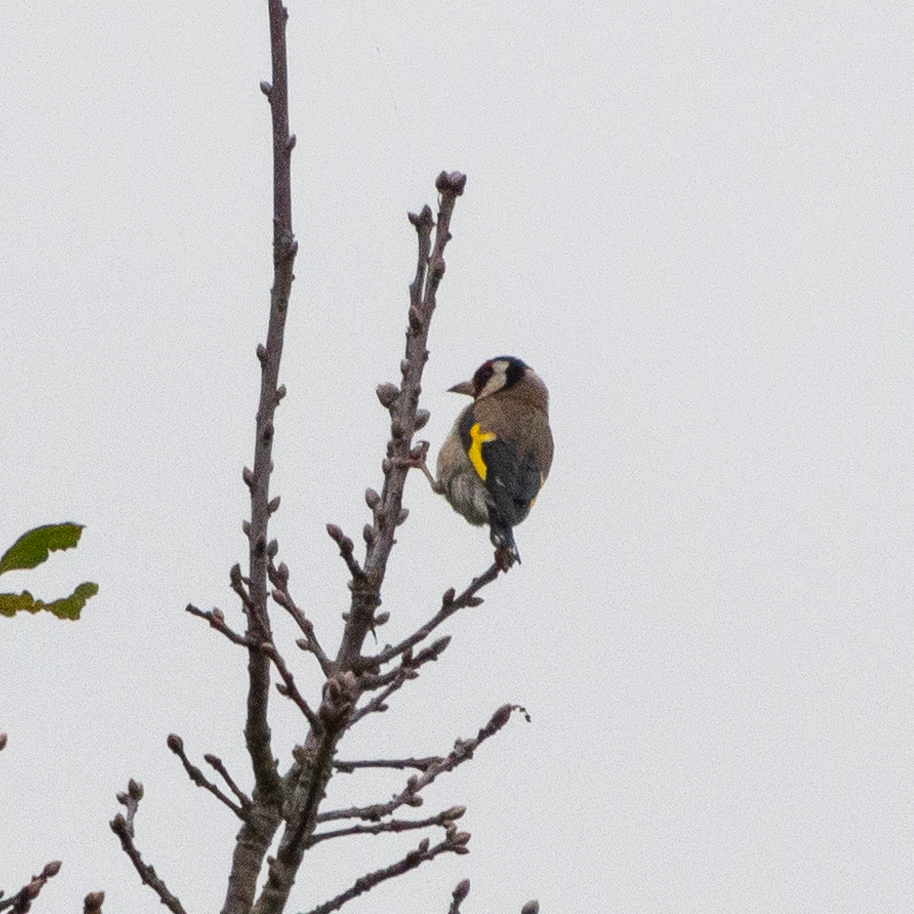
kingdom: Animalia
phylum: Chordata
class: Aves
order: Passeriformes
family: Fringillidae
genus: Carduelis
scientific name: Carduelis carduelis
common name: European goldfinch
